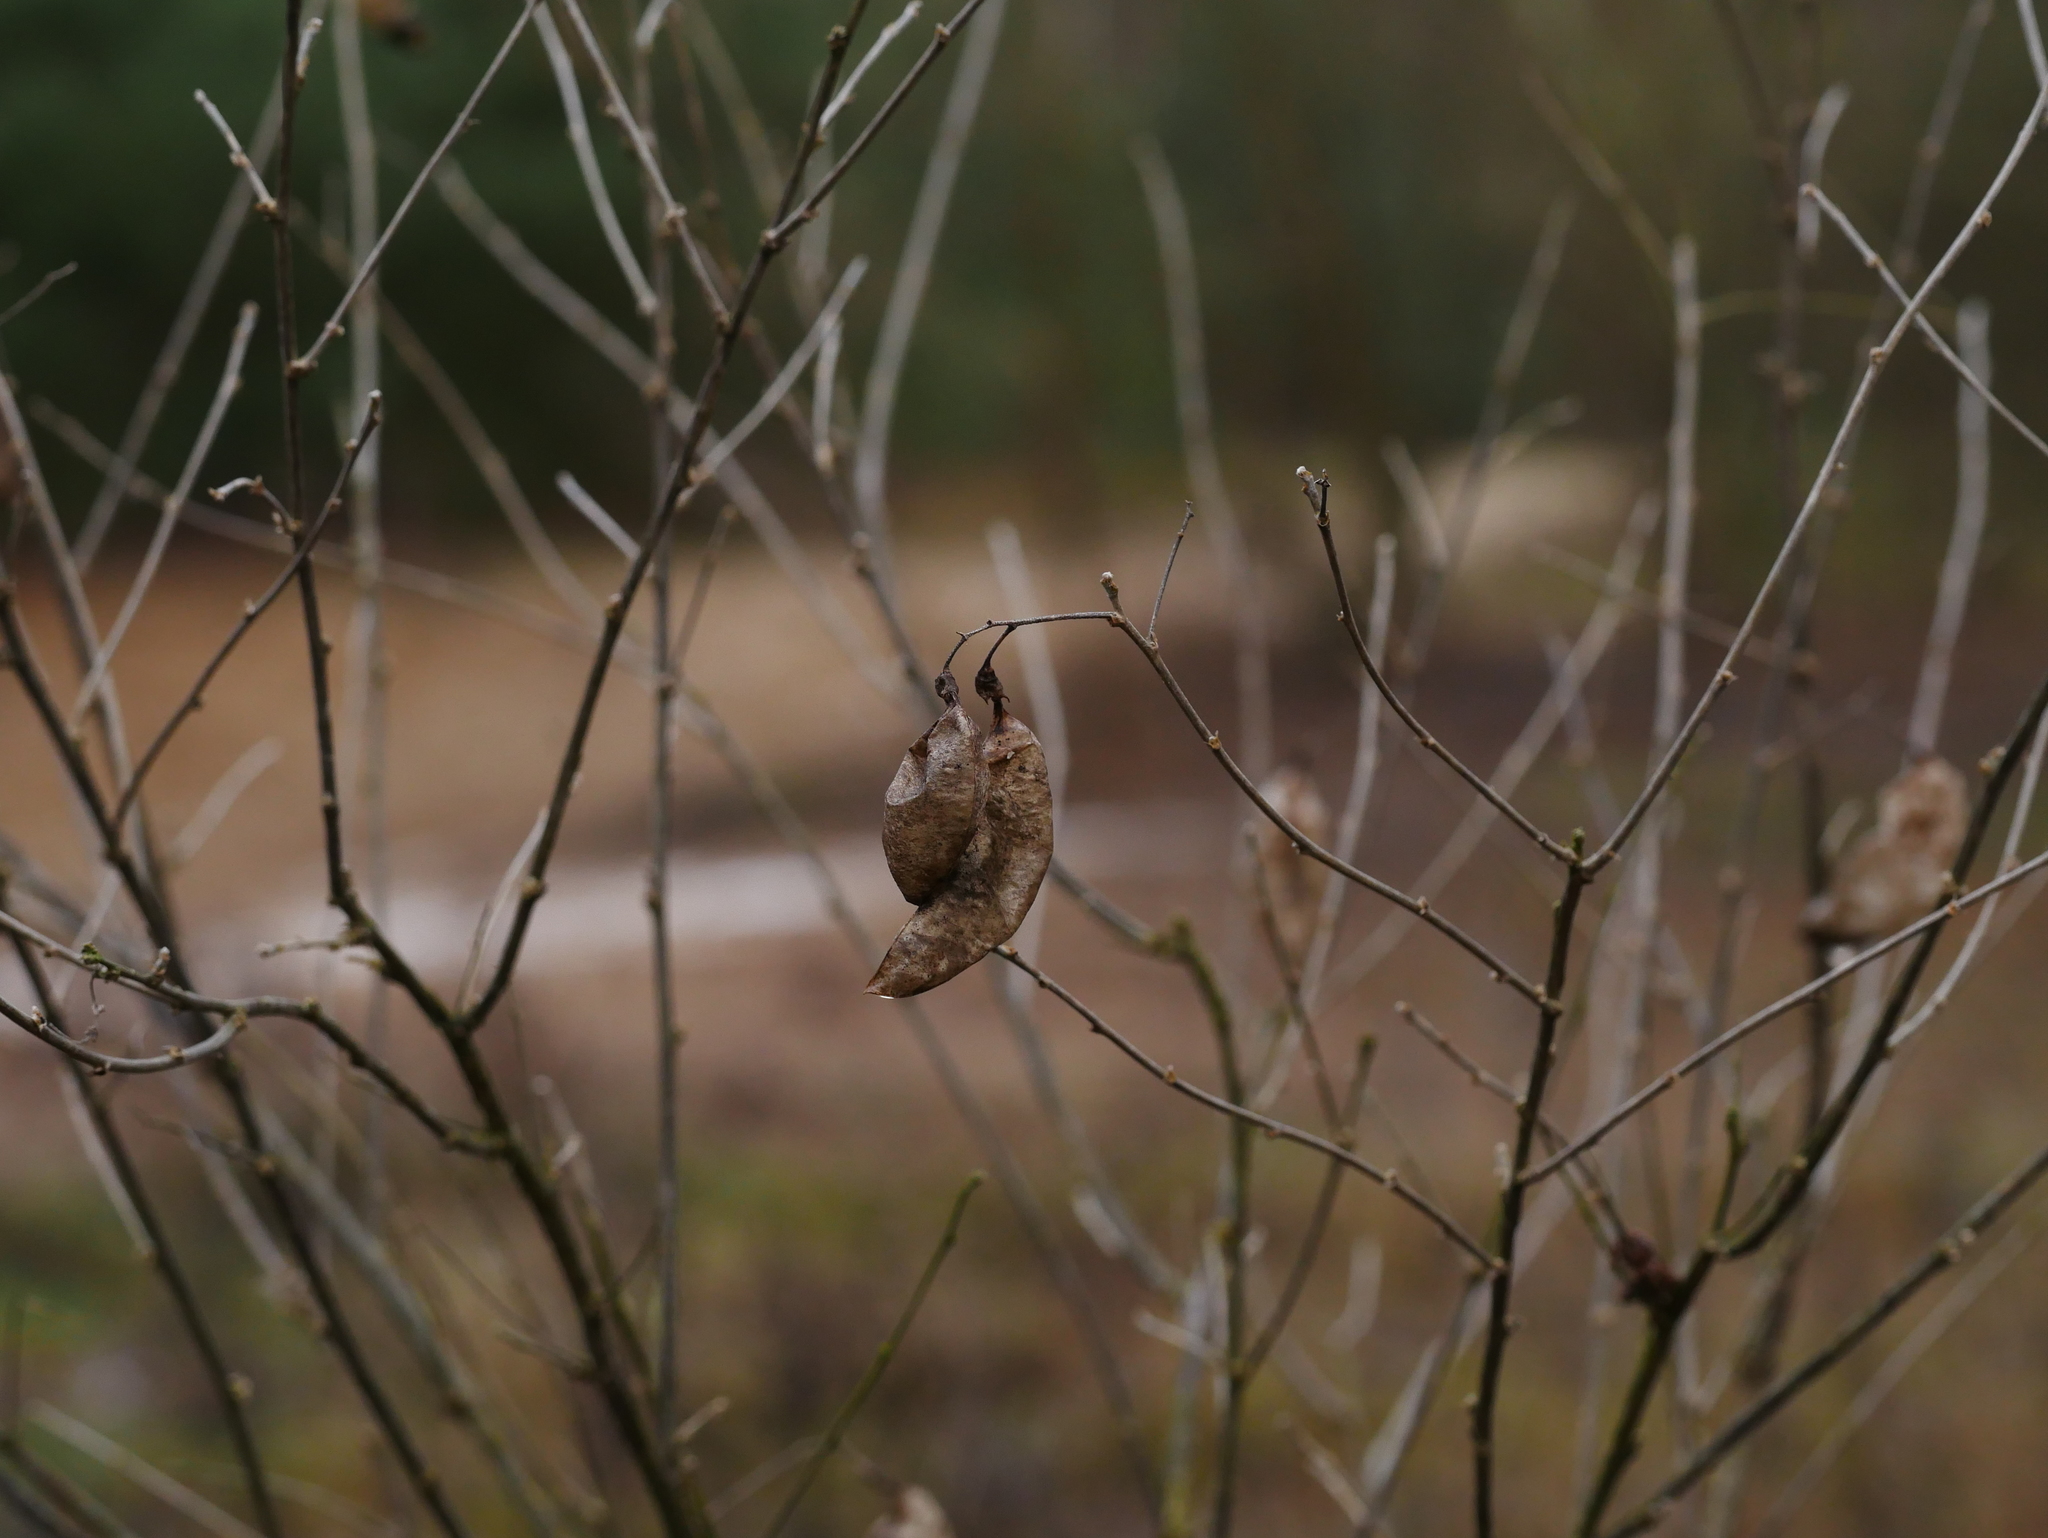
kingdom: Plantae
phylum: Tracheophyta
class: Magnoliopsida
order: Fabales
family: Fabaceae
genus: Colutea
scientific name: Colutea arborescens
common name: Bladder-senna
